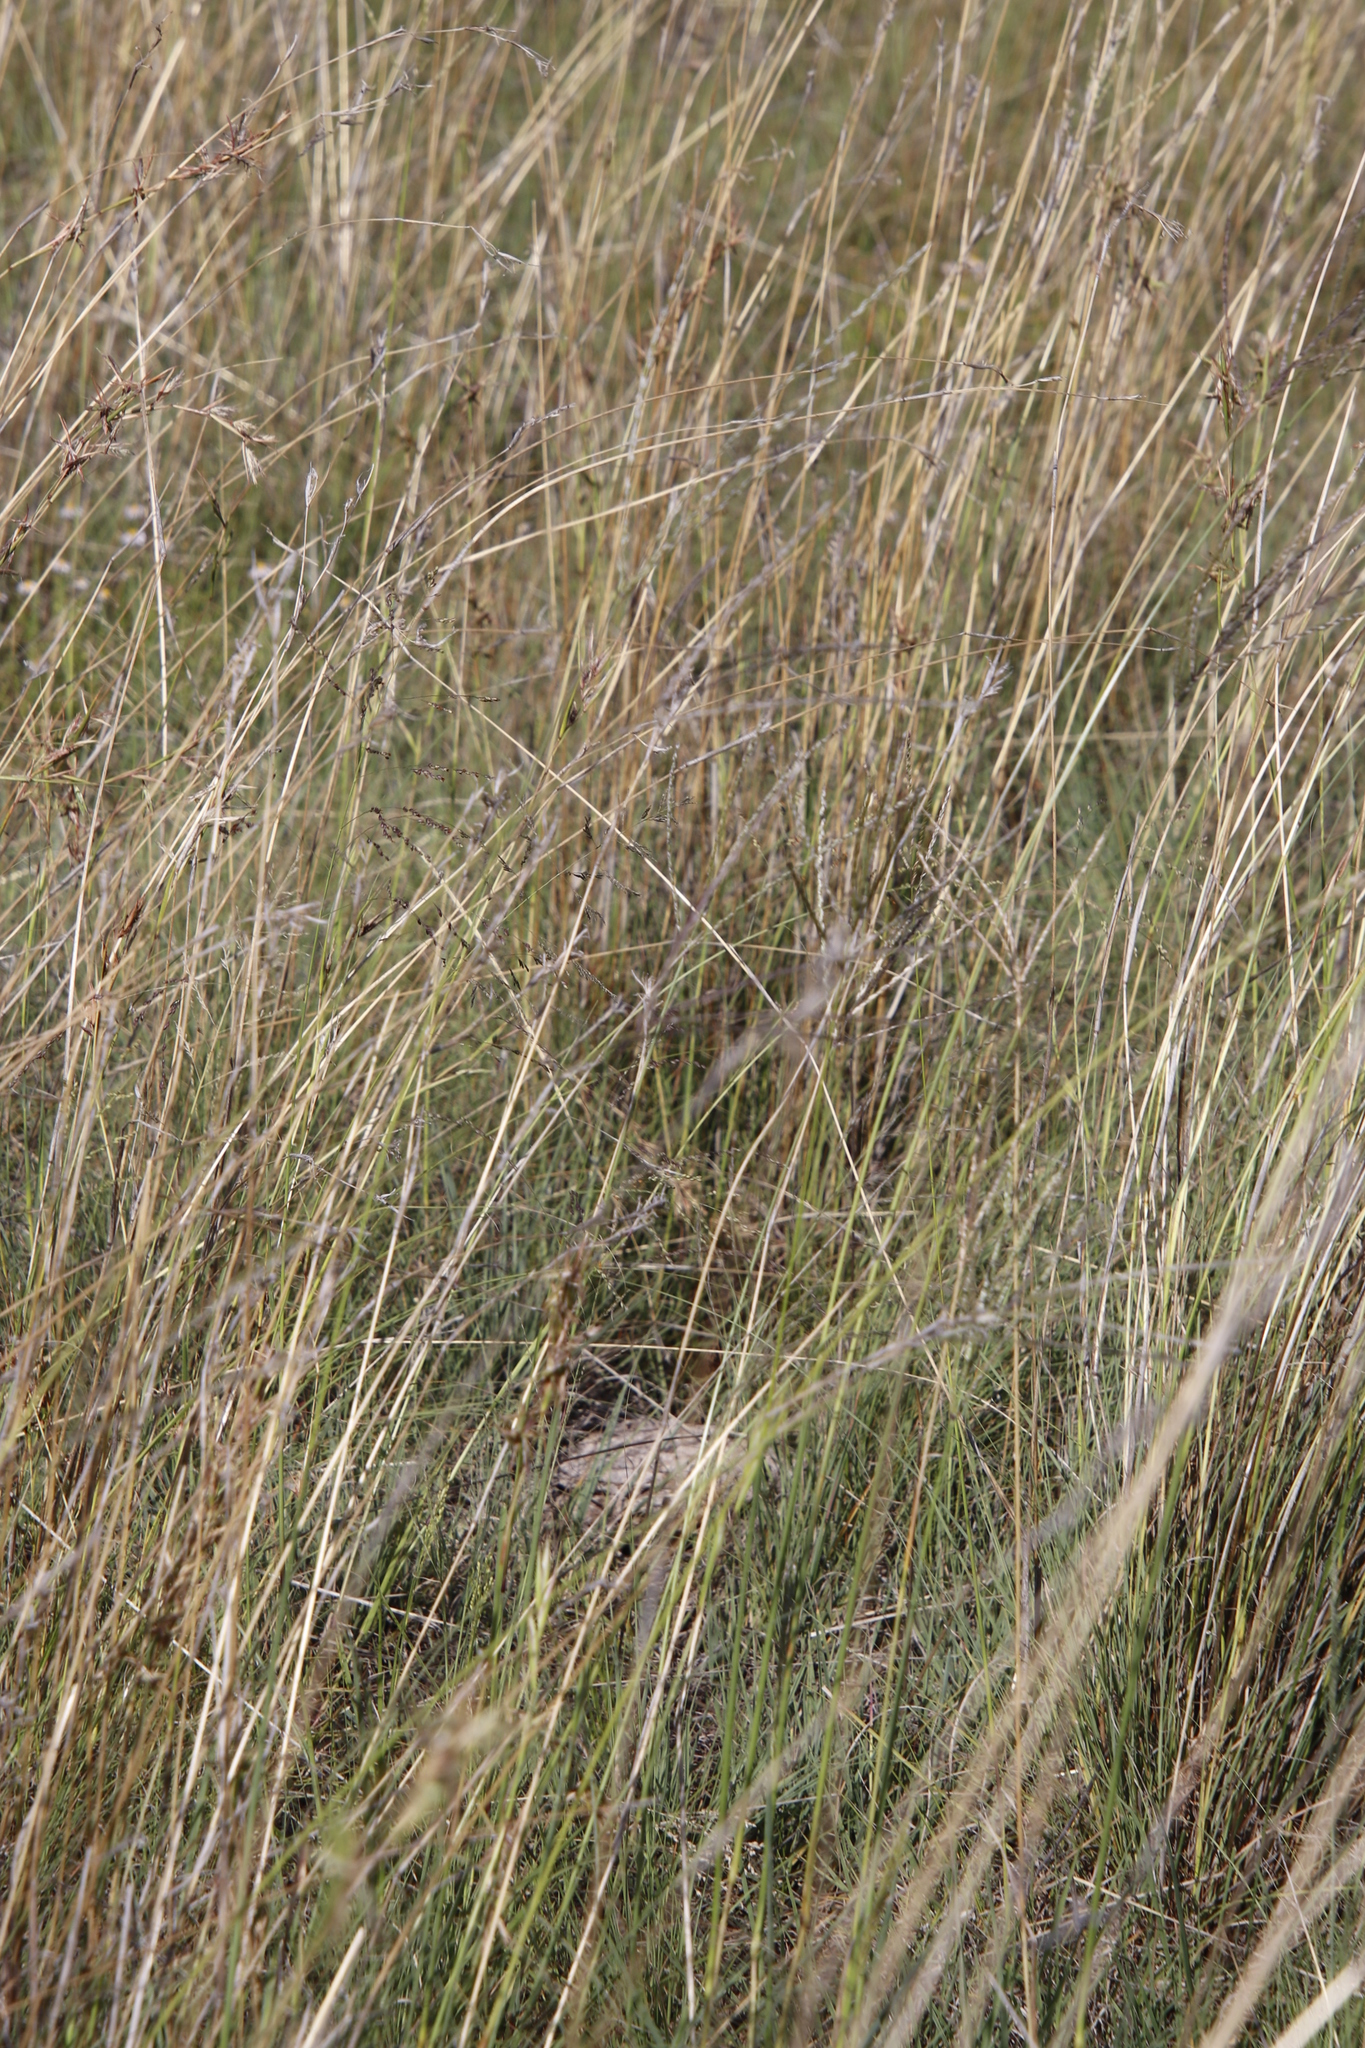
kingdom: Plantae
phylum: Tracheophyta
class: Liliopsida
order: Poales
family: Poaceae
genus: Cymbopogon
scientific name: Cymbopogon pospischilii
